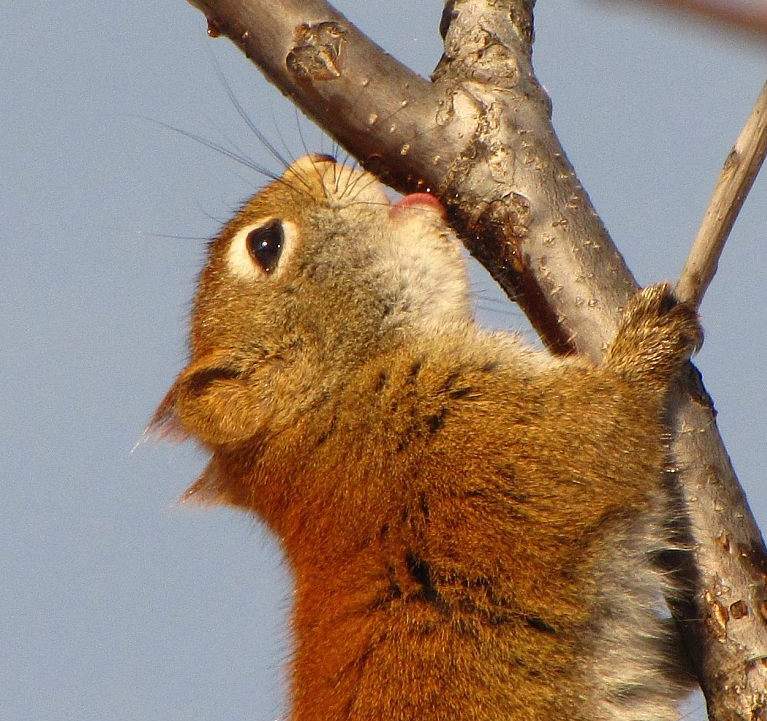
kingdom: Animalia
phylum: Chordata
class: Mammalia
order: Rodentia
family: Sciuridae
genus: Tamiasciurus
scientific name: Tamiasciurus hudsonicus
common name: Red squirrel
